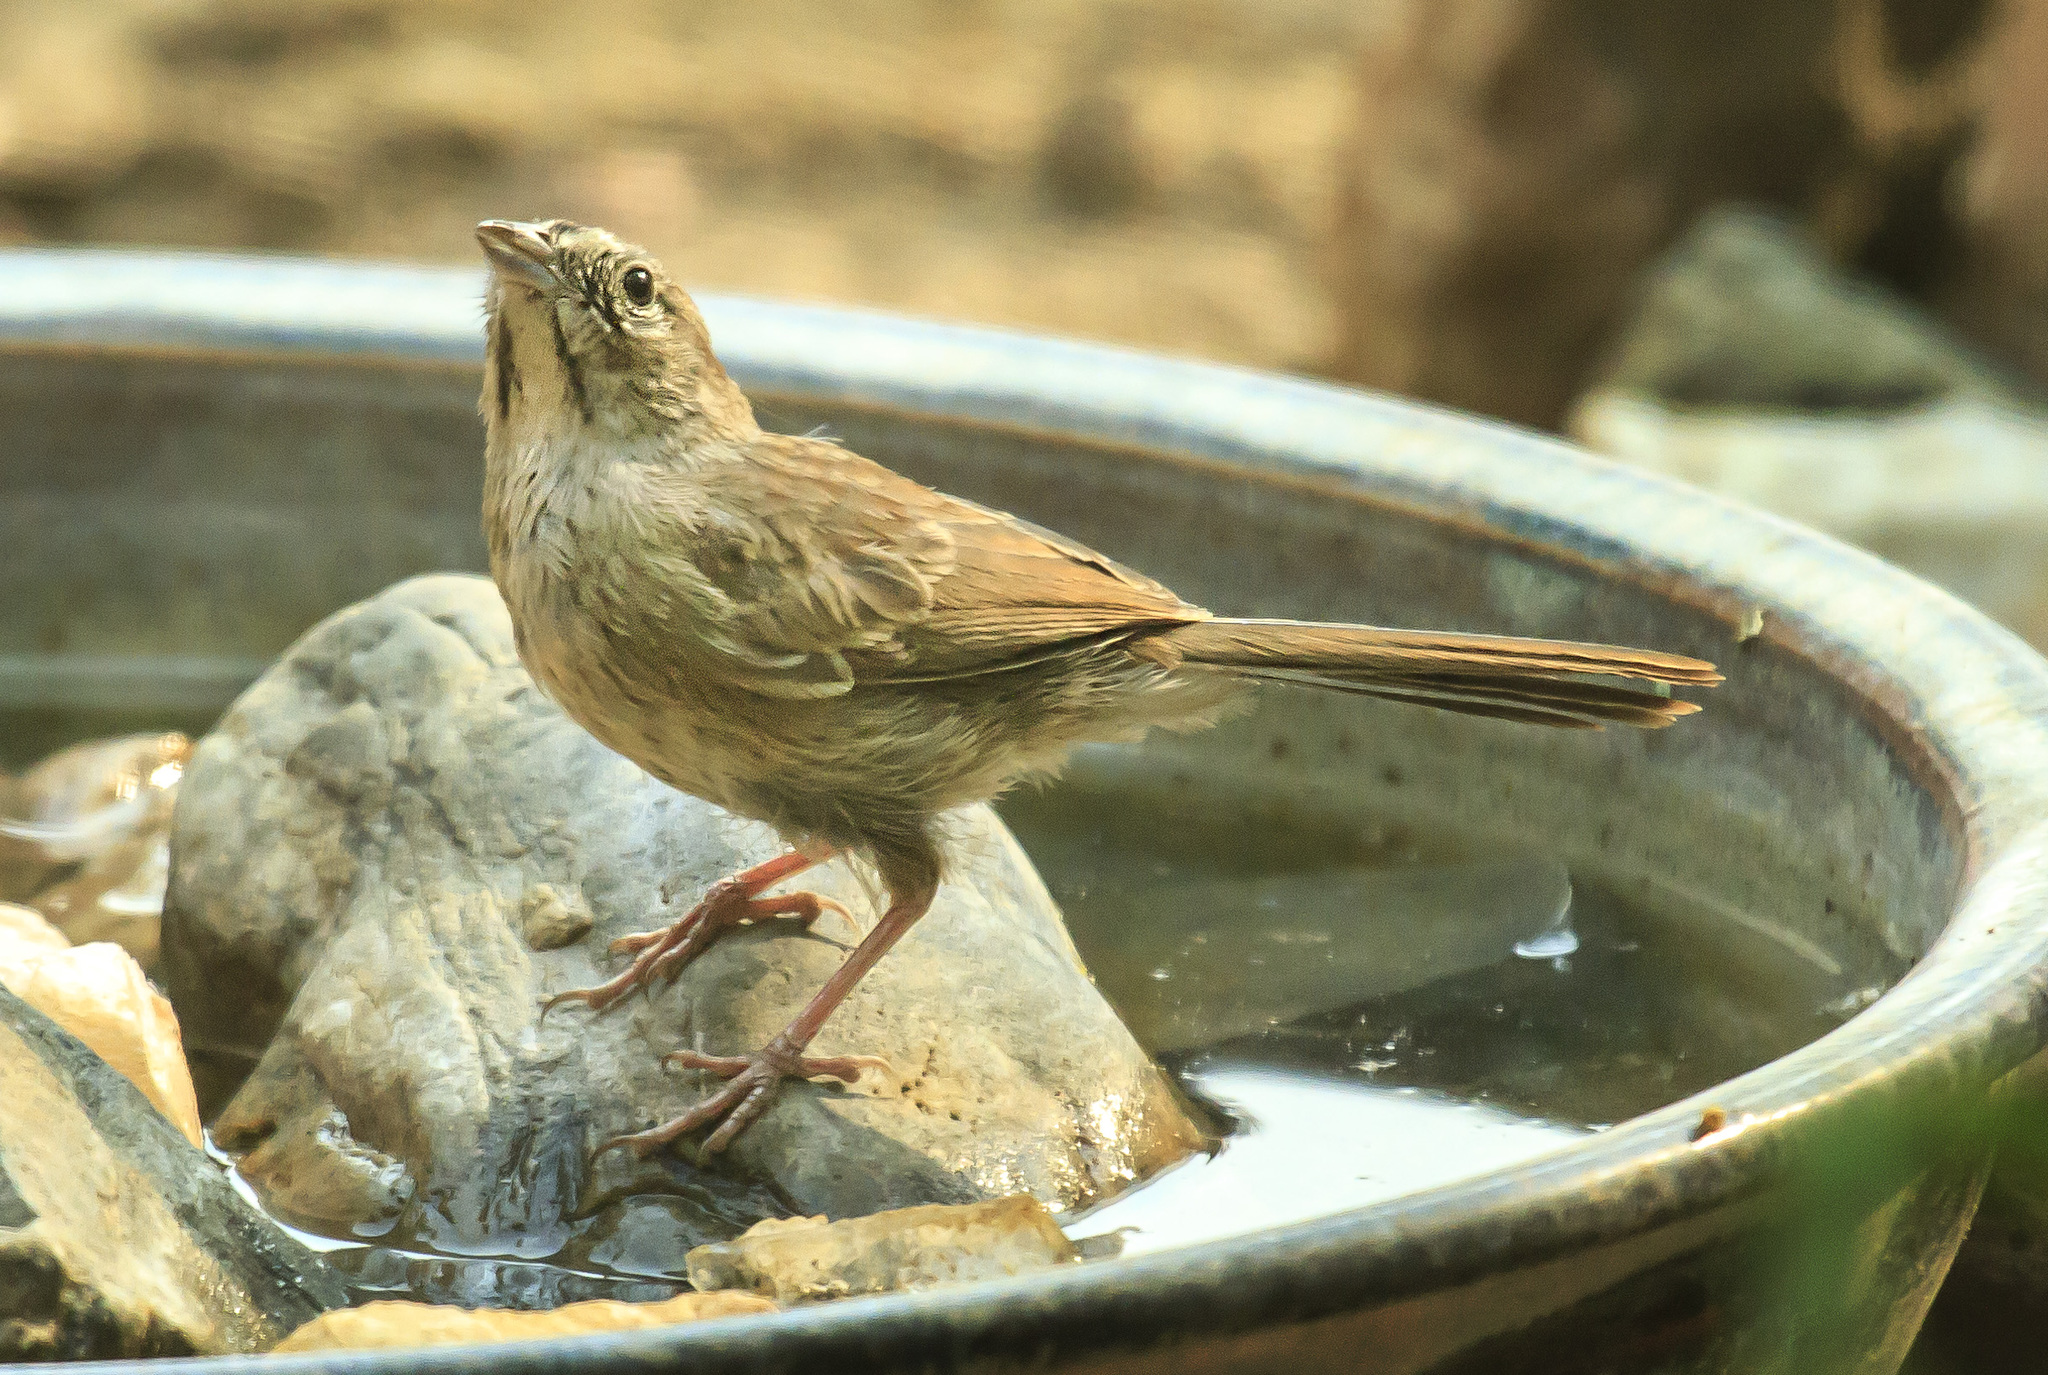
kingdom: Animalia
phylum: Chordata
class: Aves
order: Passeriformes
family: Passerellidae
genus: Aimophila
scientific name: Aimophila ruficeps
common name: Rufous-crowned sparrow
